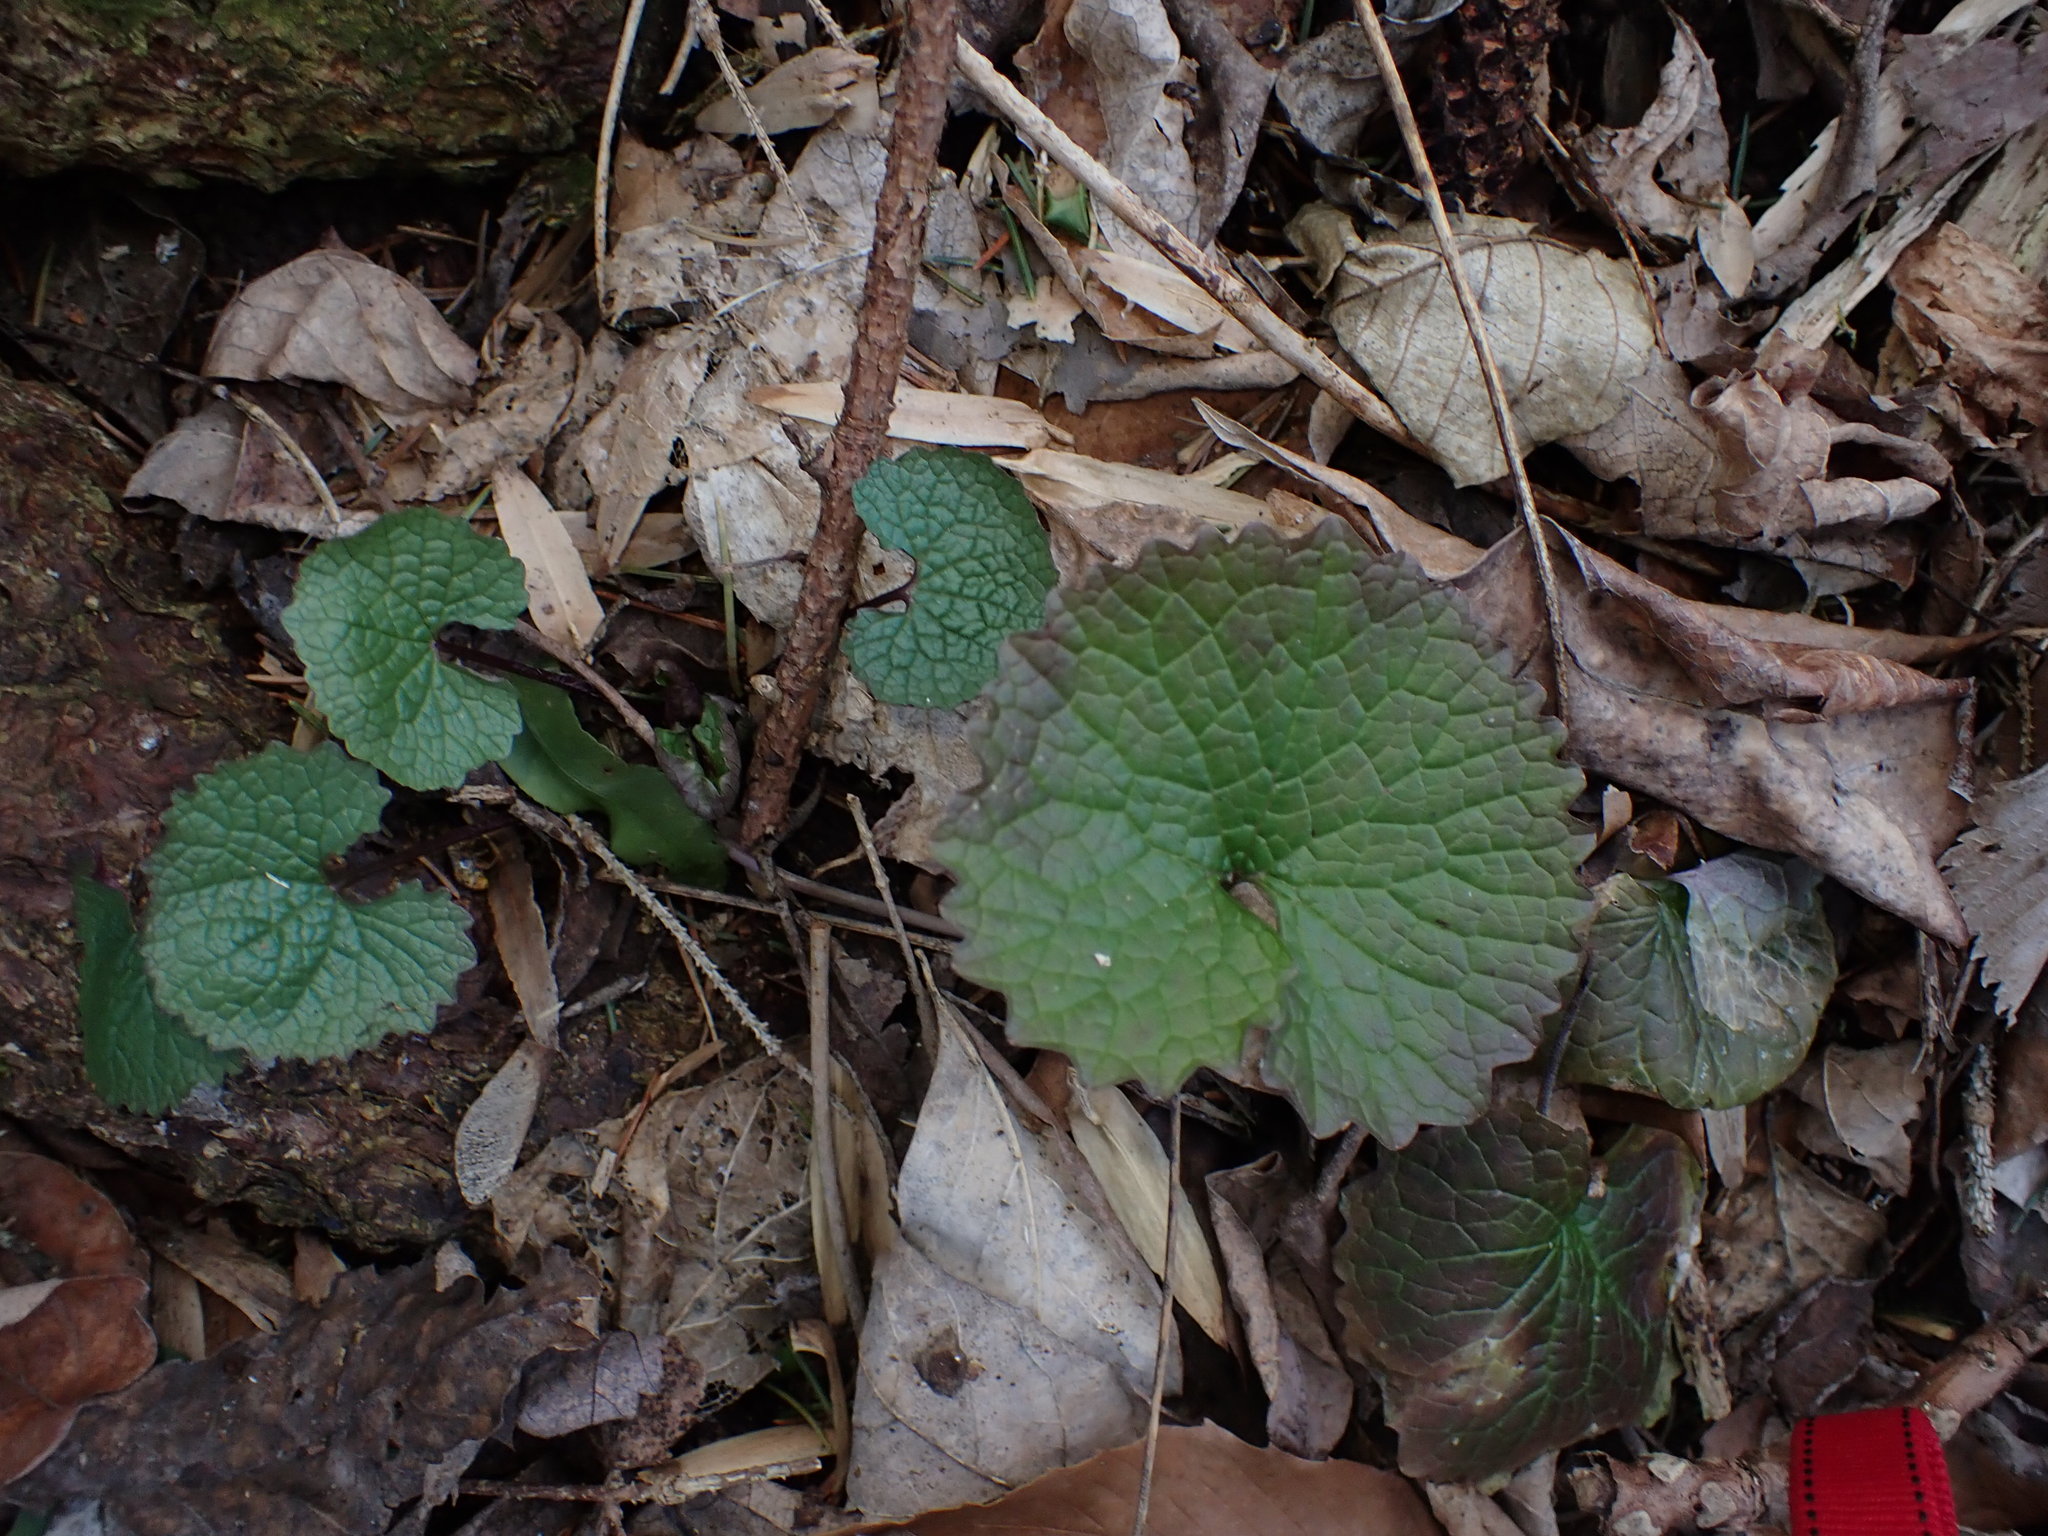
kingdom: Plantae
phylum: Tracheophyta
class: Magnoliopsida
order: Brassicales
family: Brassicaceae
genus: Alliaria
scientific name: Alliaria petiolata
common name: Garlic mustard
